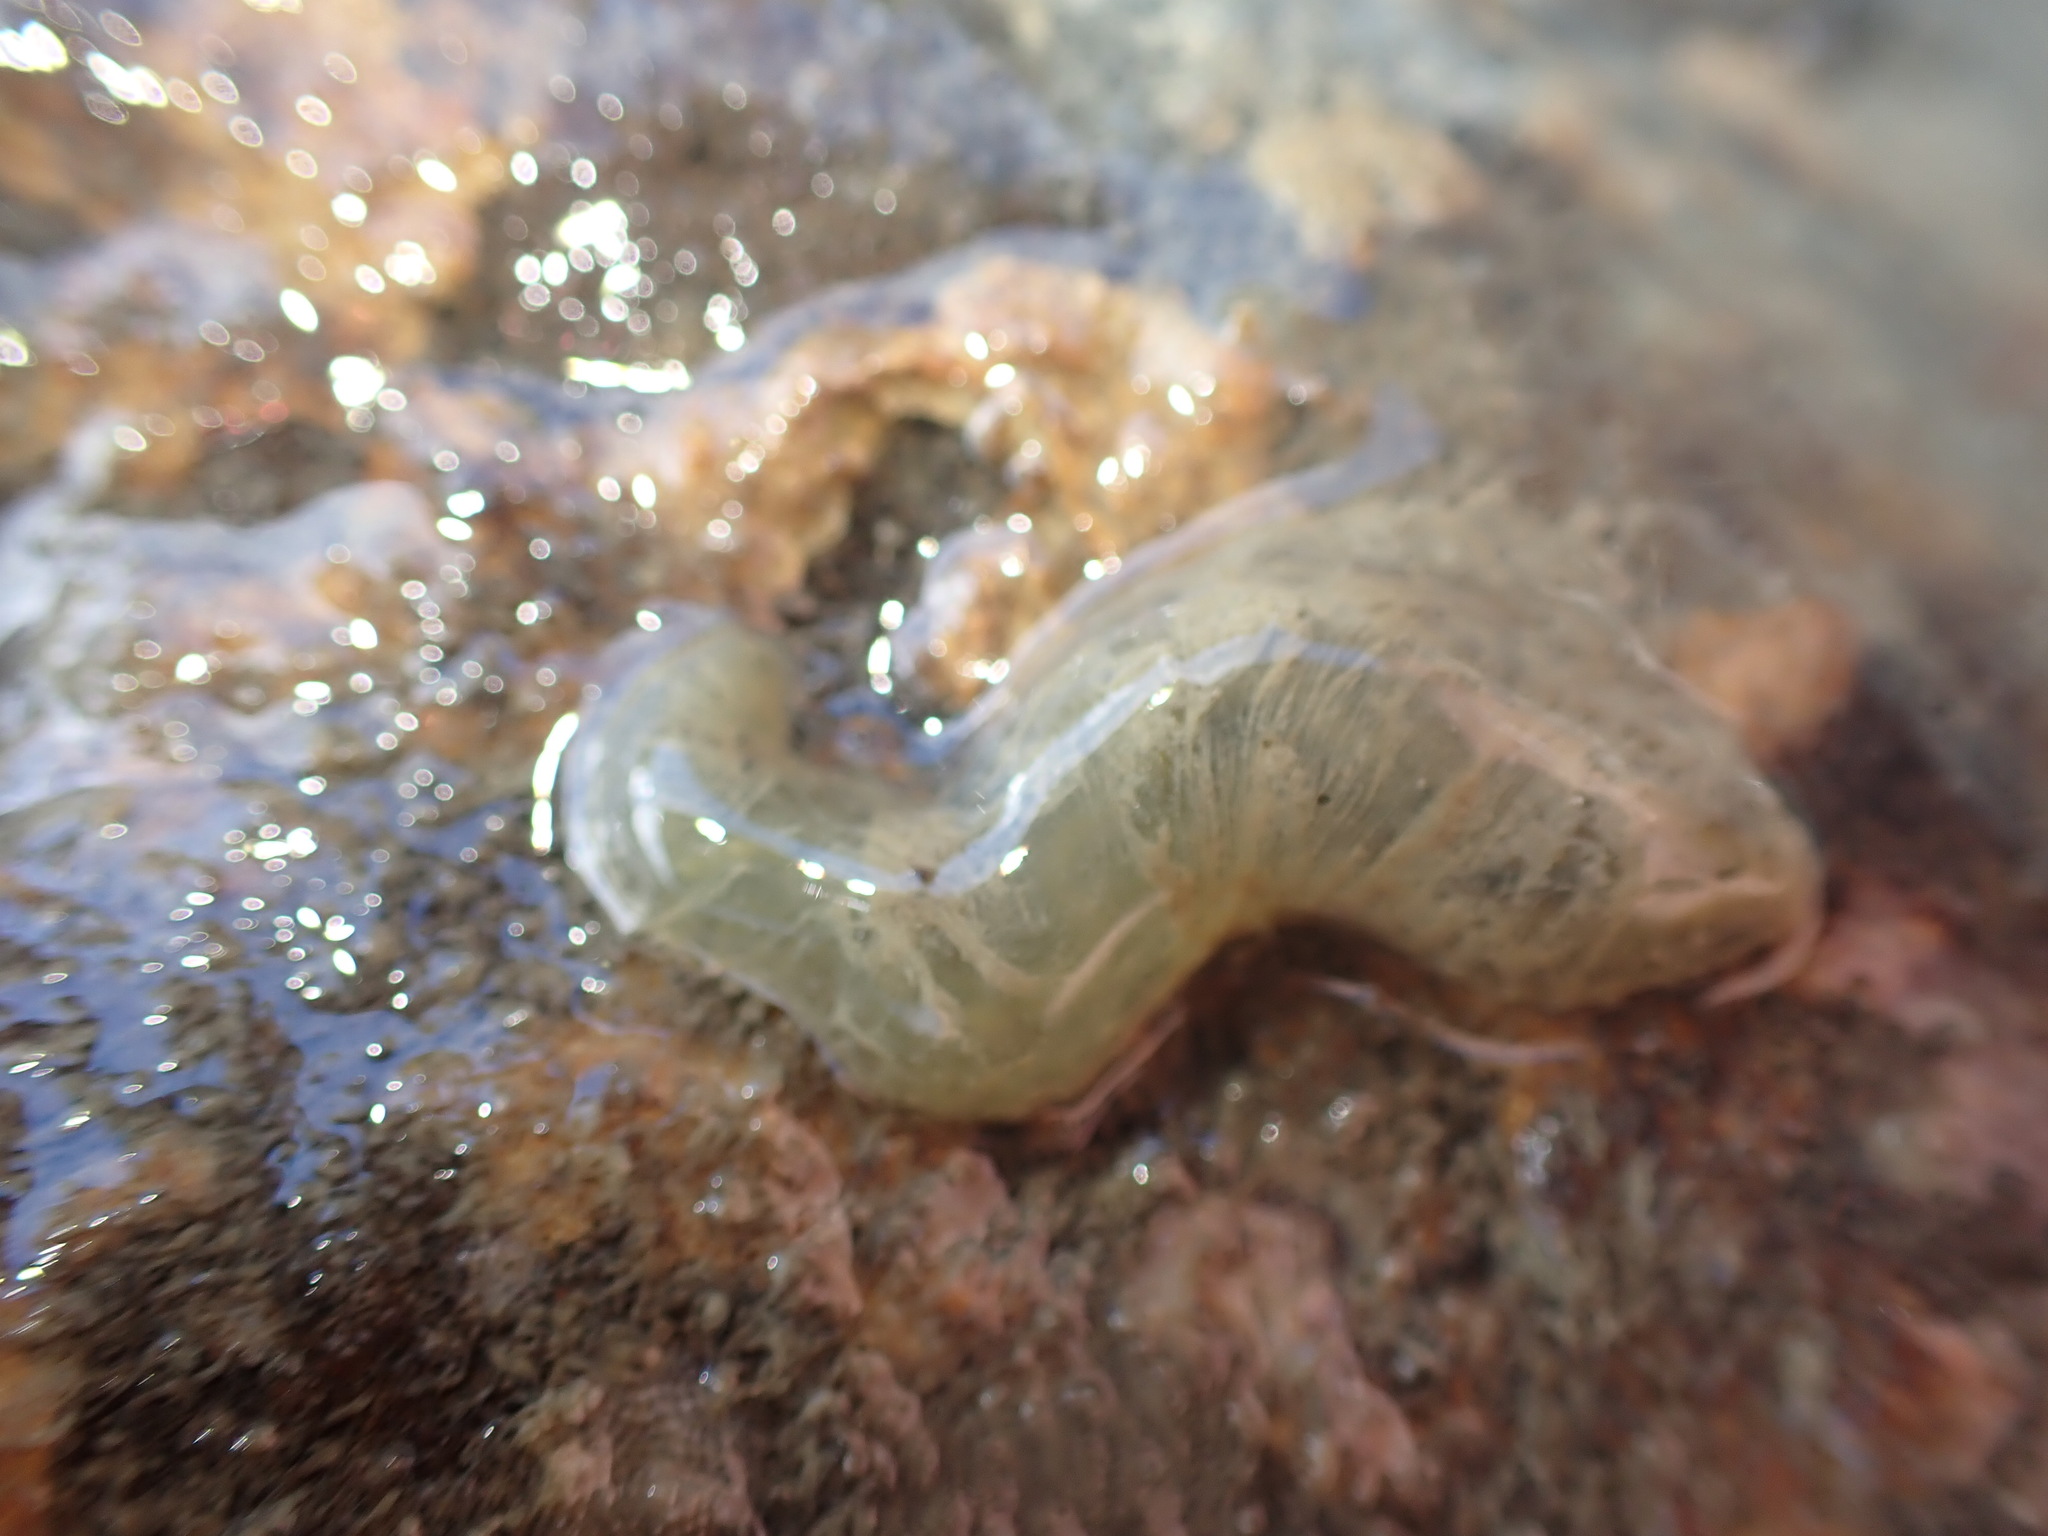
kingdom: Animalia
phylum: Annelida
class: Polychaeta
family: Flabelligeridae
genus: Flabelligera
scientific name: Flabelligera bicolor
